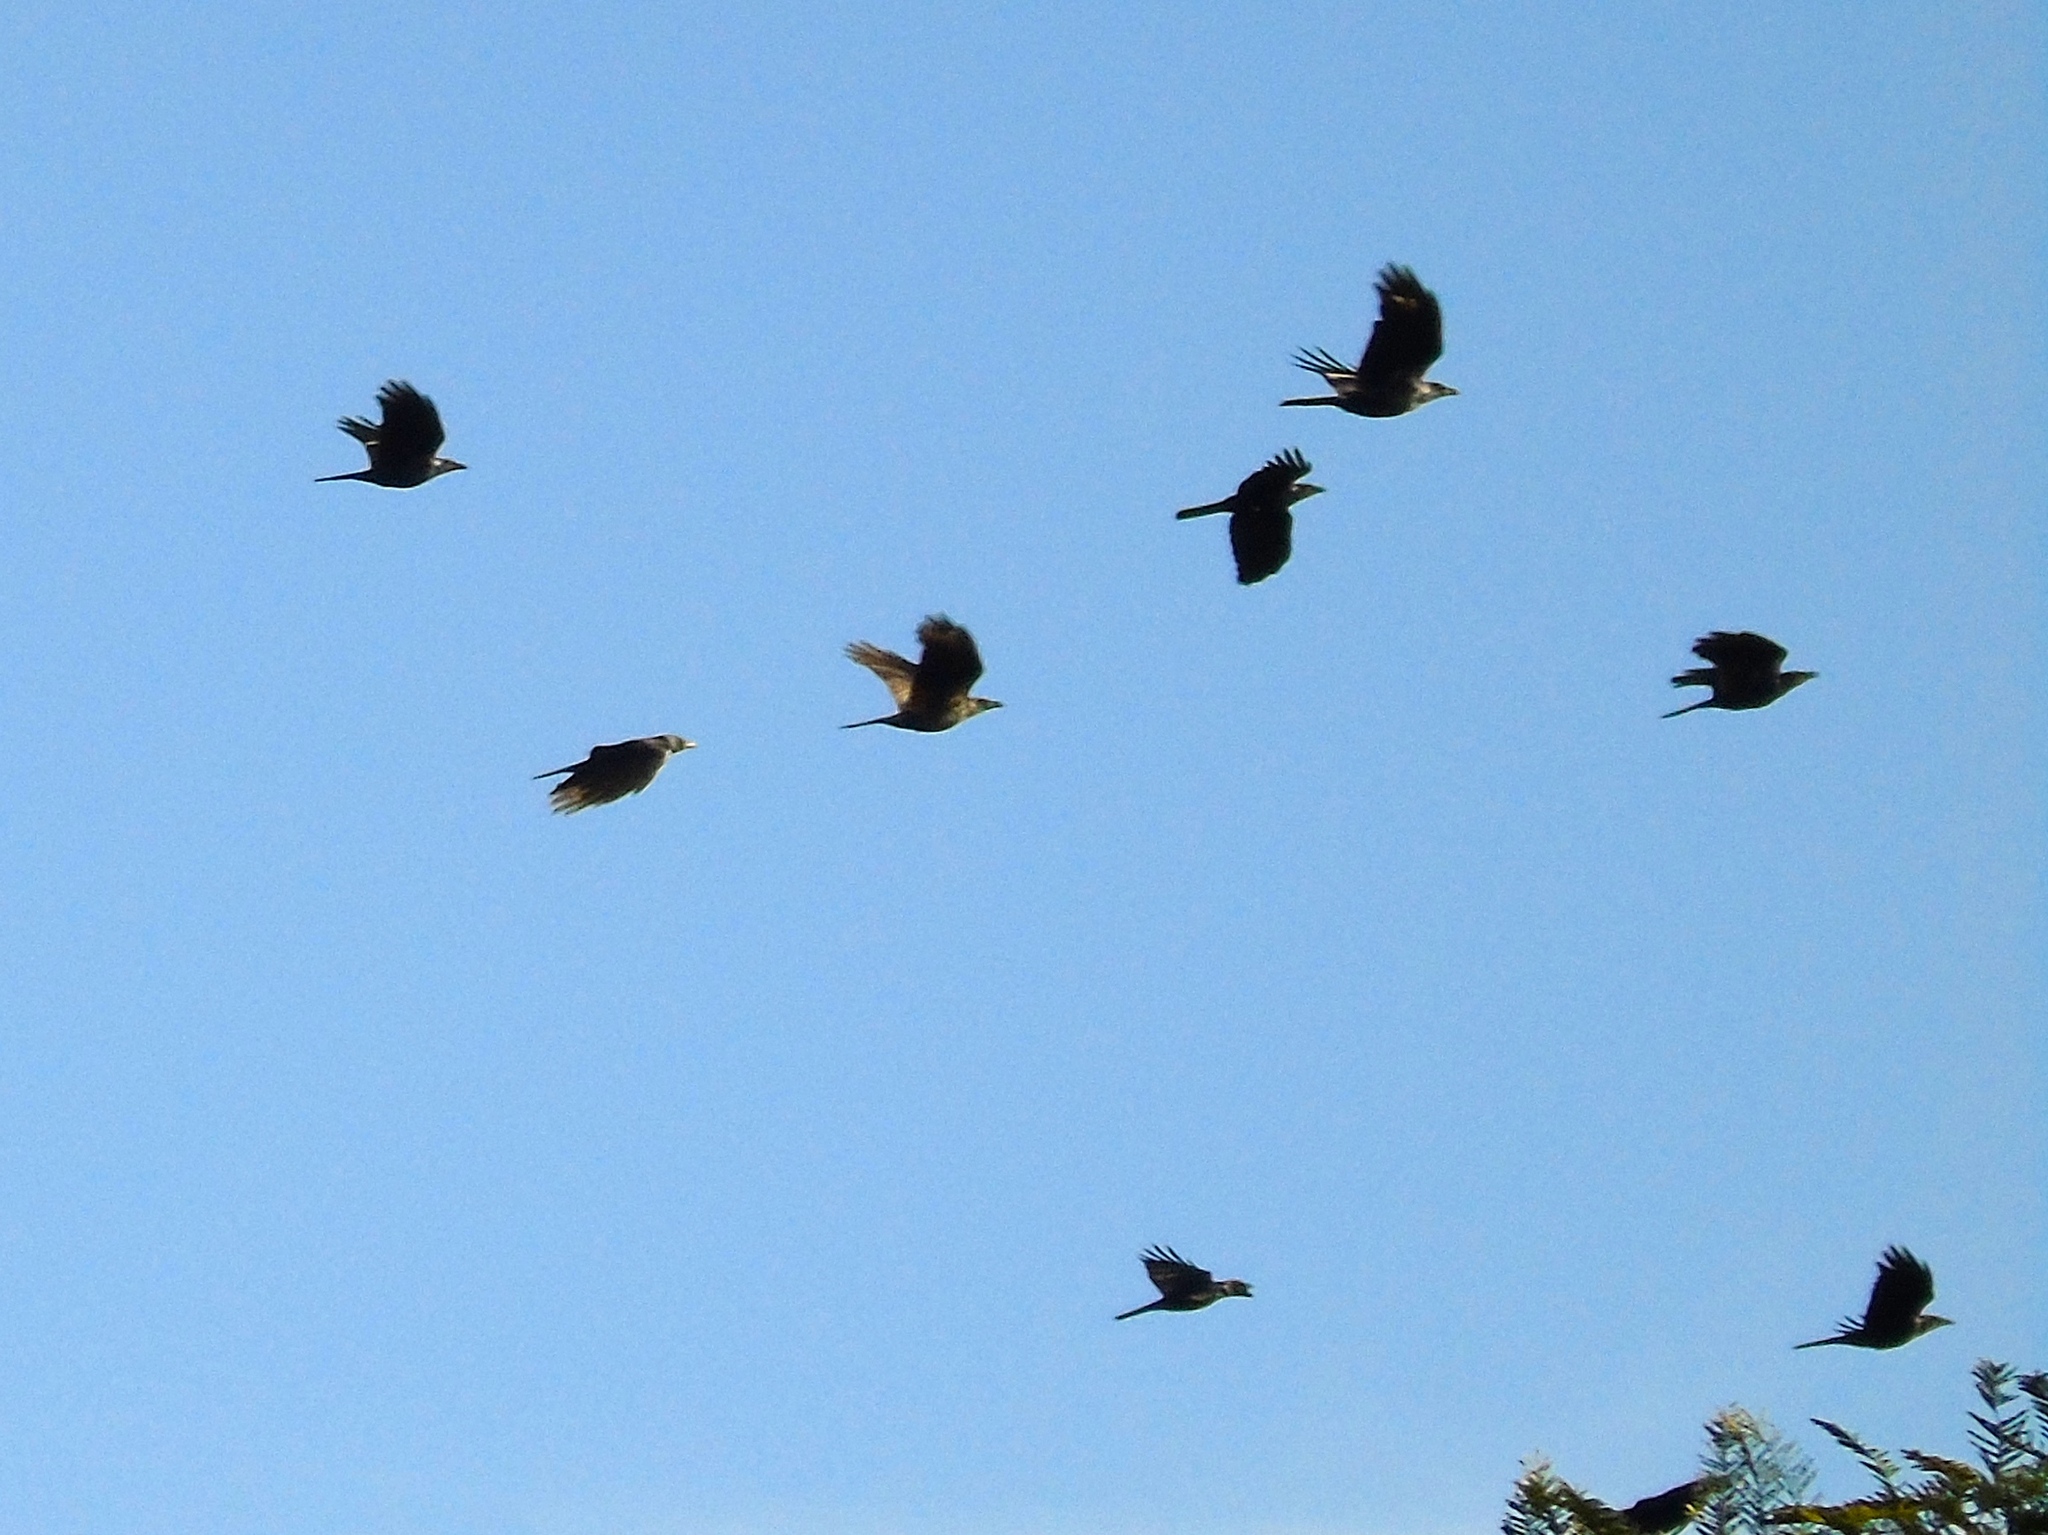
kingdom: Animalia
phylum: Chordata
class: Aves
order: Passeriformes
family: Corvidae
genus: Corvus
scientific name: Corvus sinaloae
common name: Sinaloa crow
